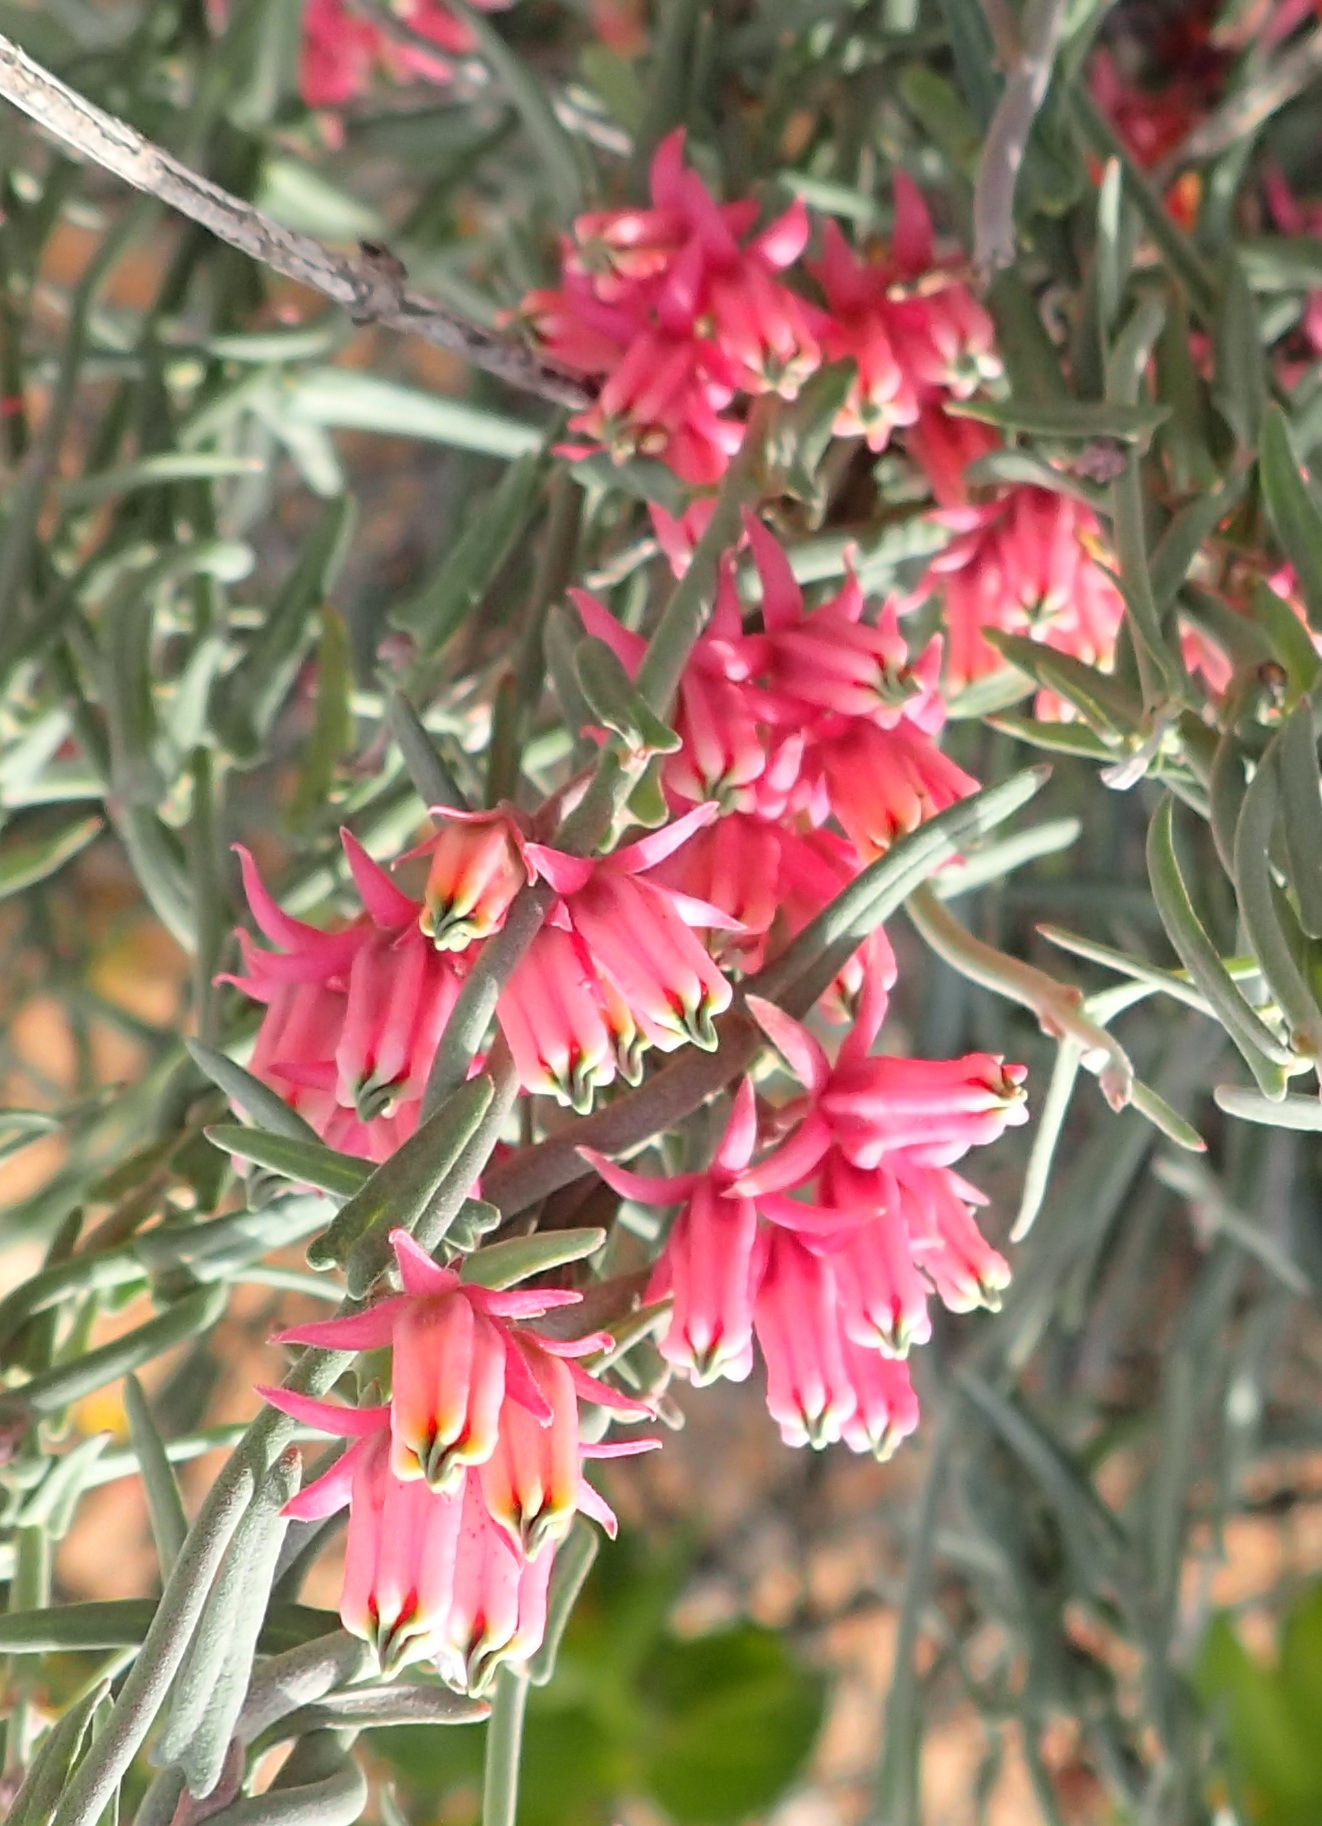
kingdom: Plantae
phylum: Tracheophyta
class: Magnoliopsida
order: Gentianales
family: Apocynaceae
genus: Microloma
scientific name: Microloma sagittatum
